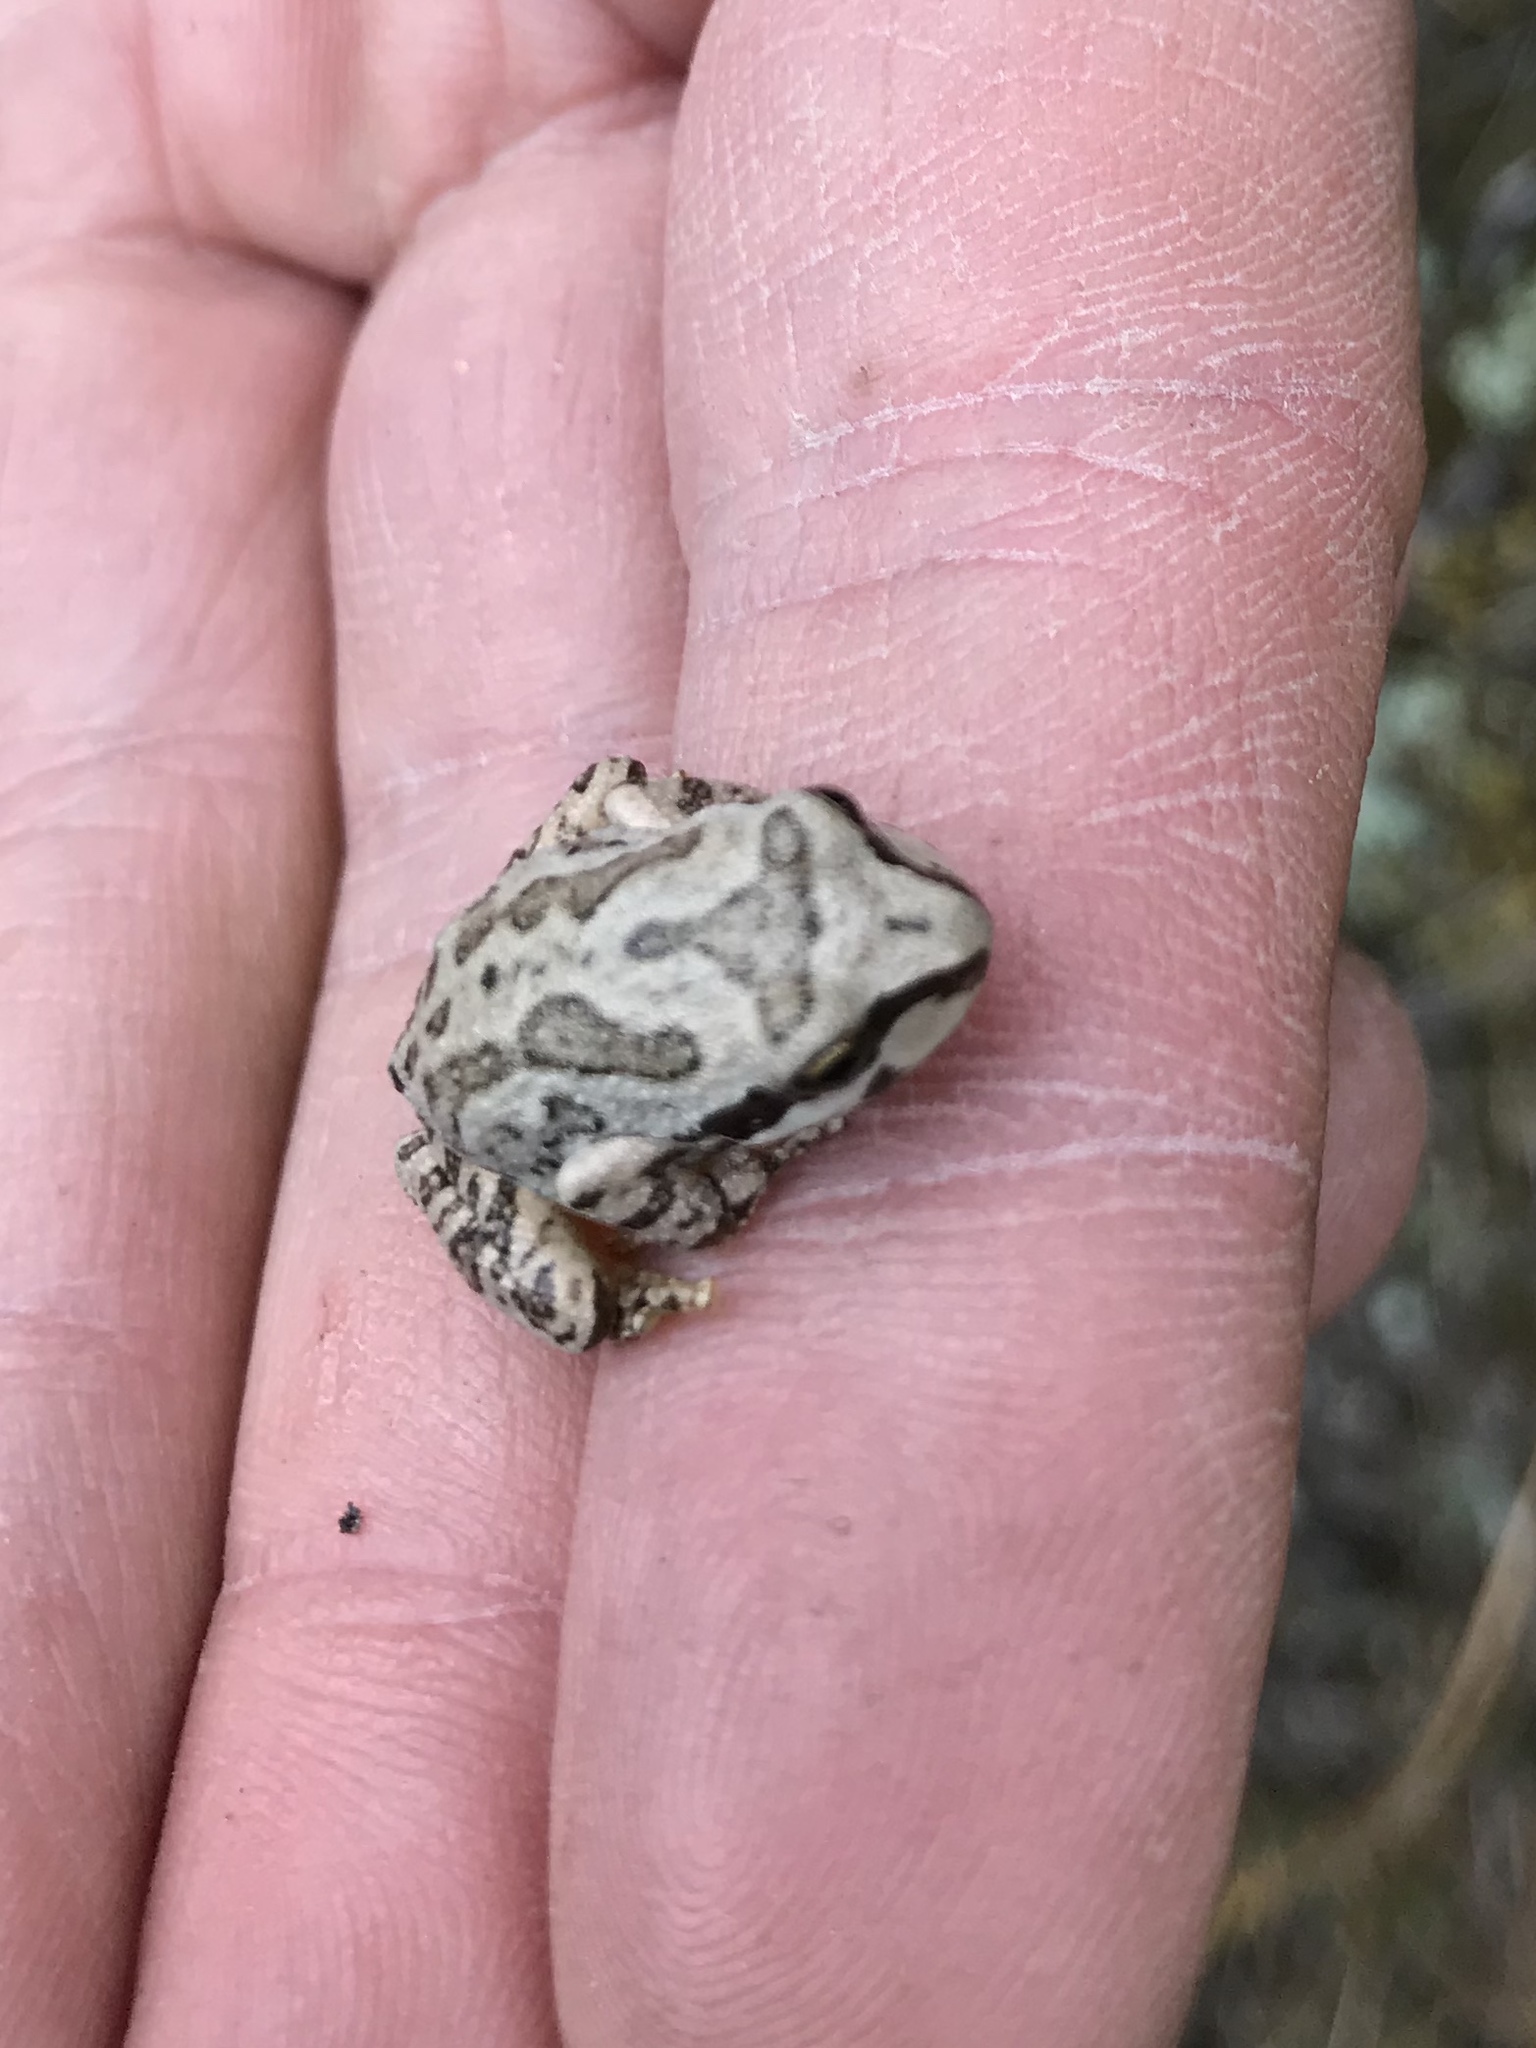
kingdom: Animalia
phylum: Chordata
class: Amphibia
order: Anura
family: Hylidae
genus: Pseudacris
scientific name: Pseudacris regilla
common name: Pacific chorus frog
